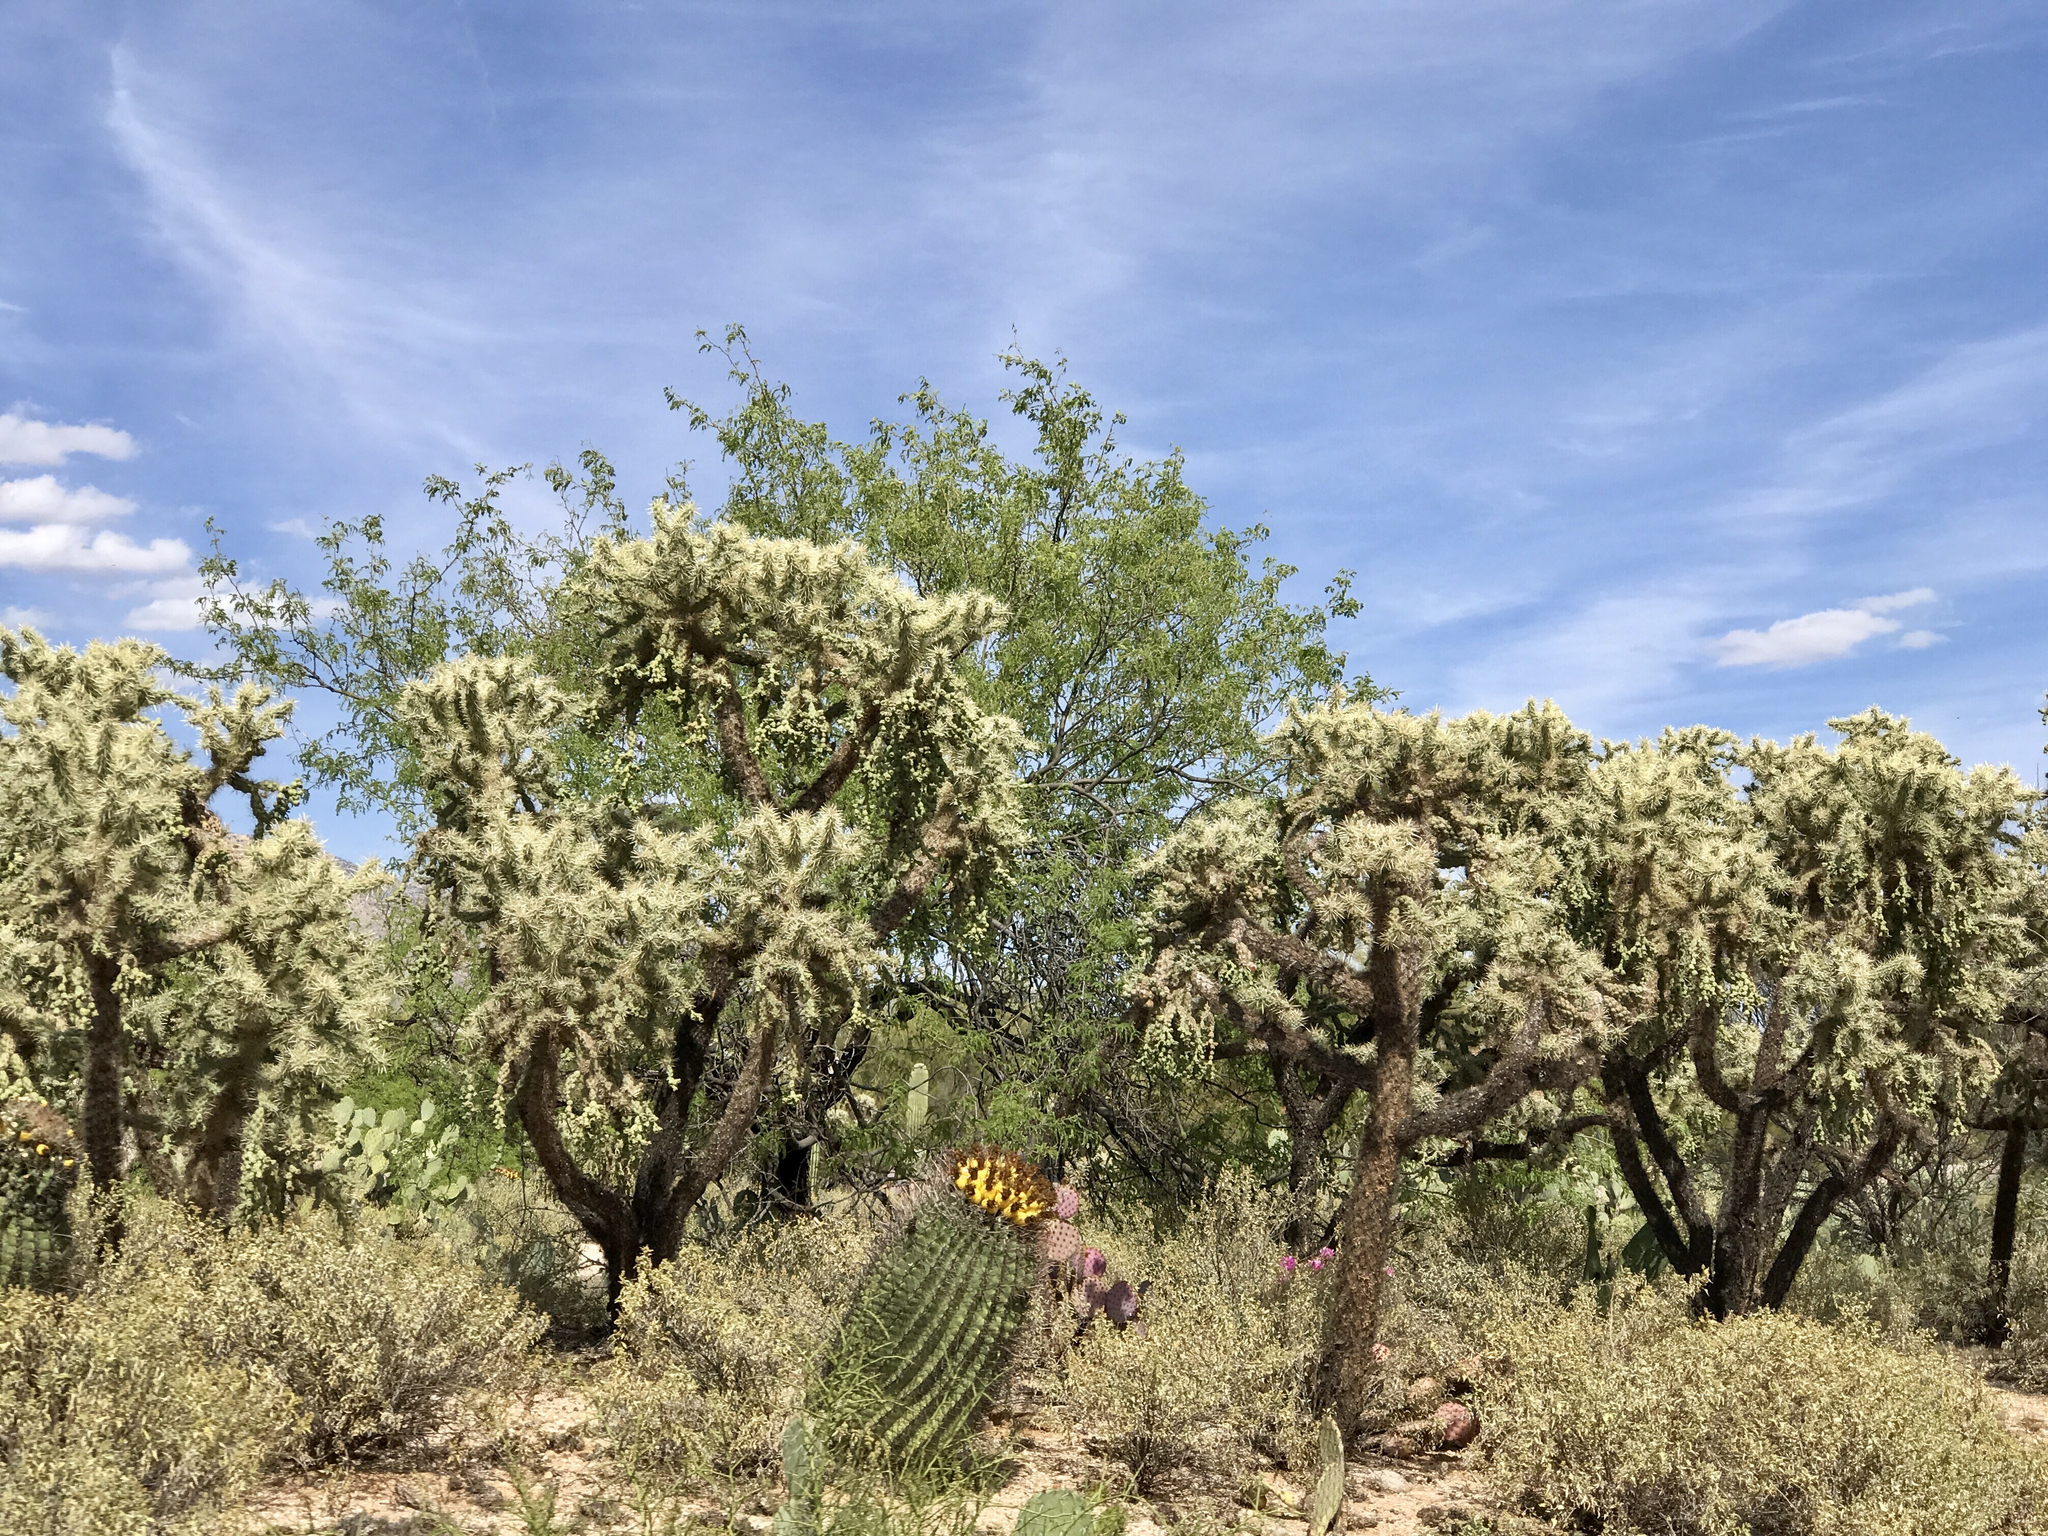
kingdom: Plantae
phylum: Tracheophyta
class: Magnoliopsida
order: Caryophyllales
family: Cactaceae
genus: Cylindropuntia
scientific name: Cylindropuntia fulgida
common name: Jumping cholla
